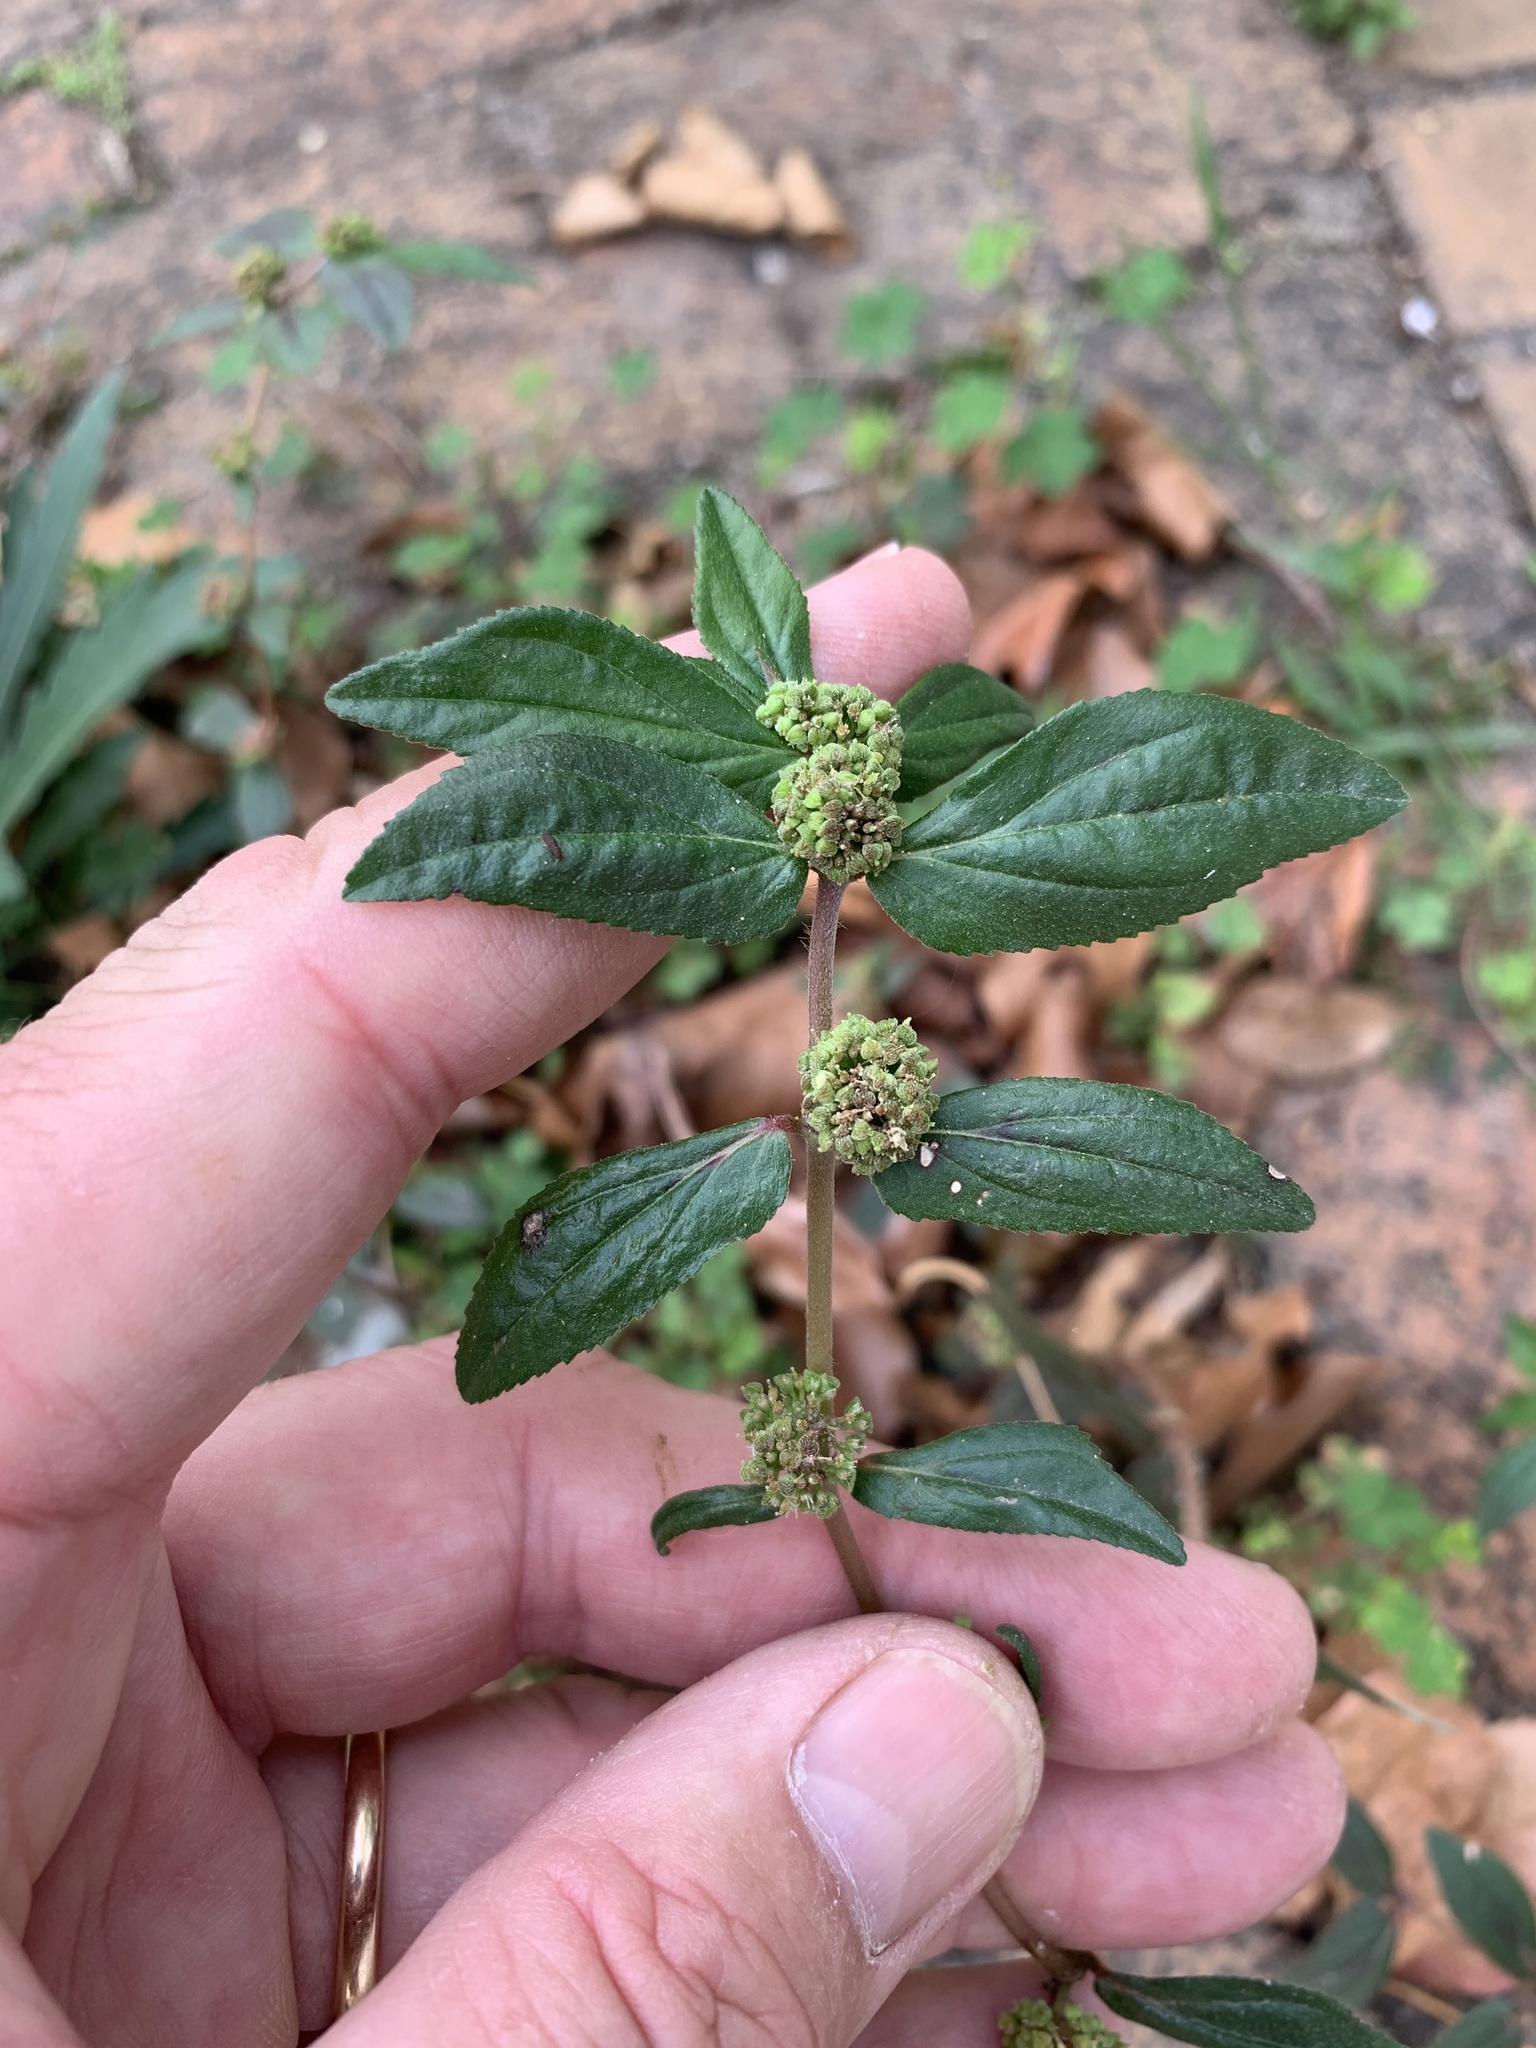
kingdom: Plantae
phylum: Tracheophyta
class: Magnoliopsida
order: Malpighiales
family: Euphorbiaceae
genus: Euphorbia
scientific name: Euphorbia hirta
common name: Pillpod sandmat
